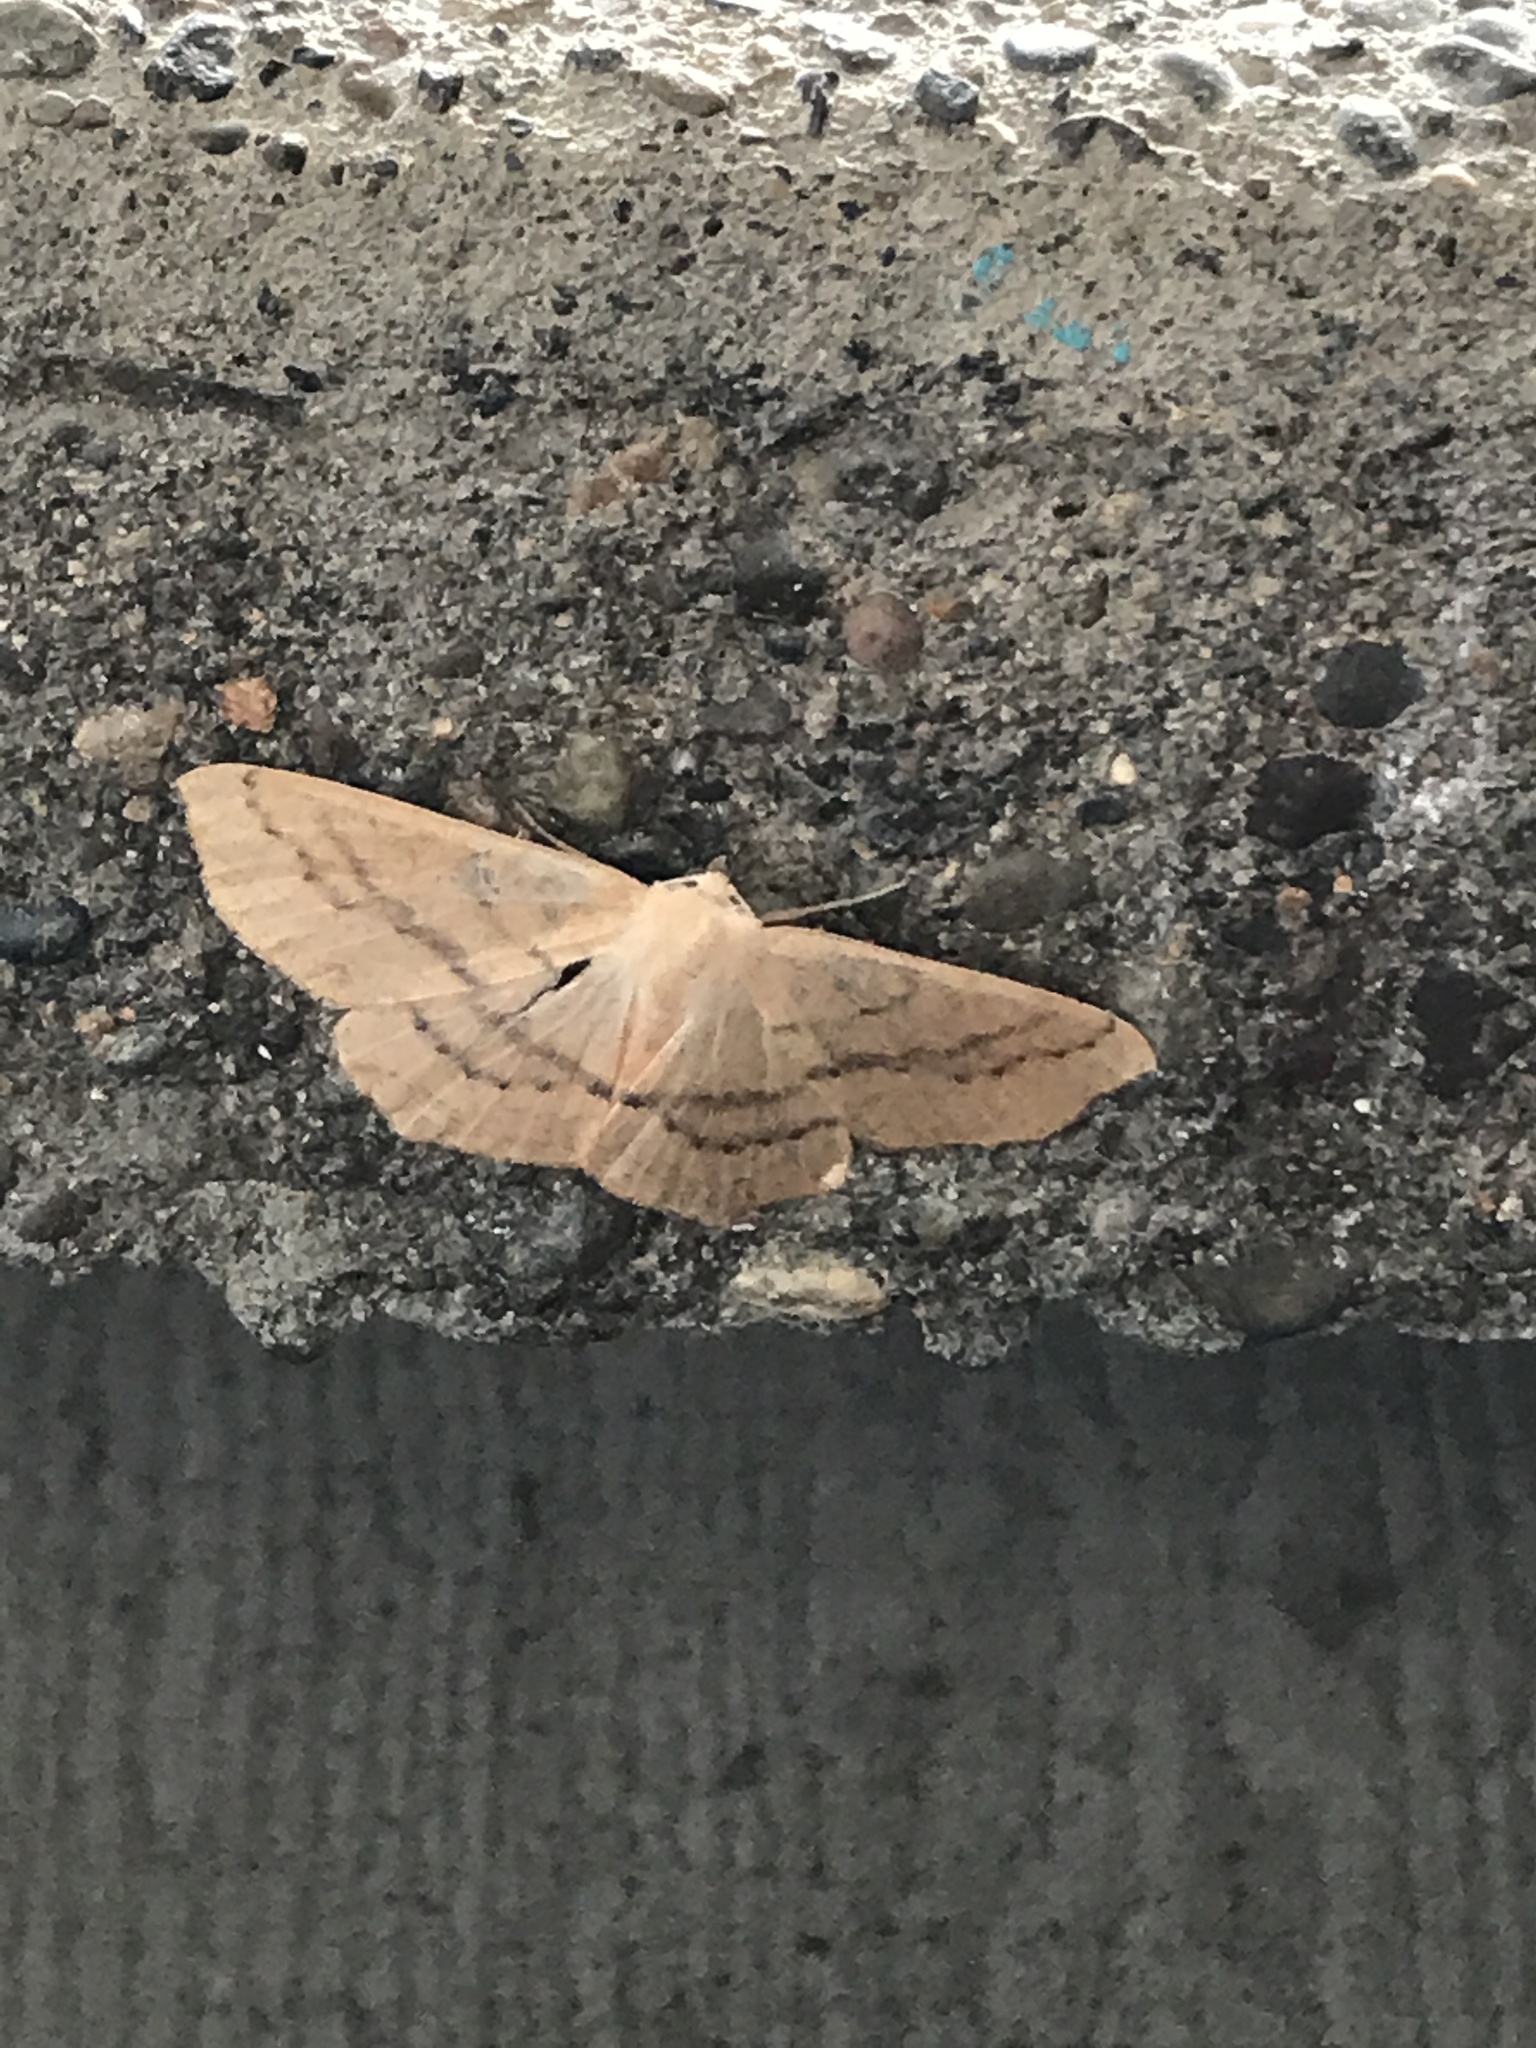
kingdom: Animalia
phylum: Arthropoda
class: Insecta
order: Lepidoptera
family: Geometridae
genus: Sabulodes
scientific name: Sabulodes aegrotata
